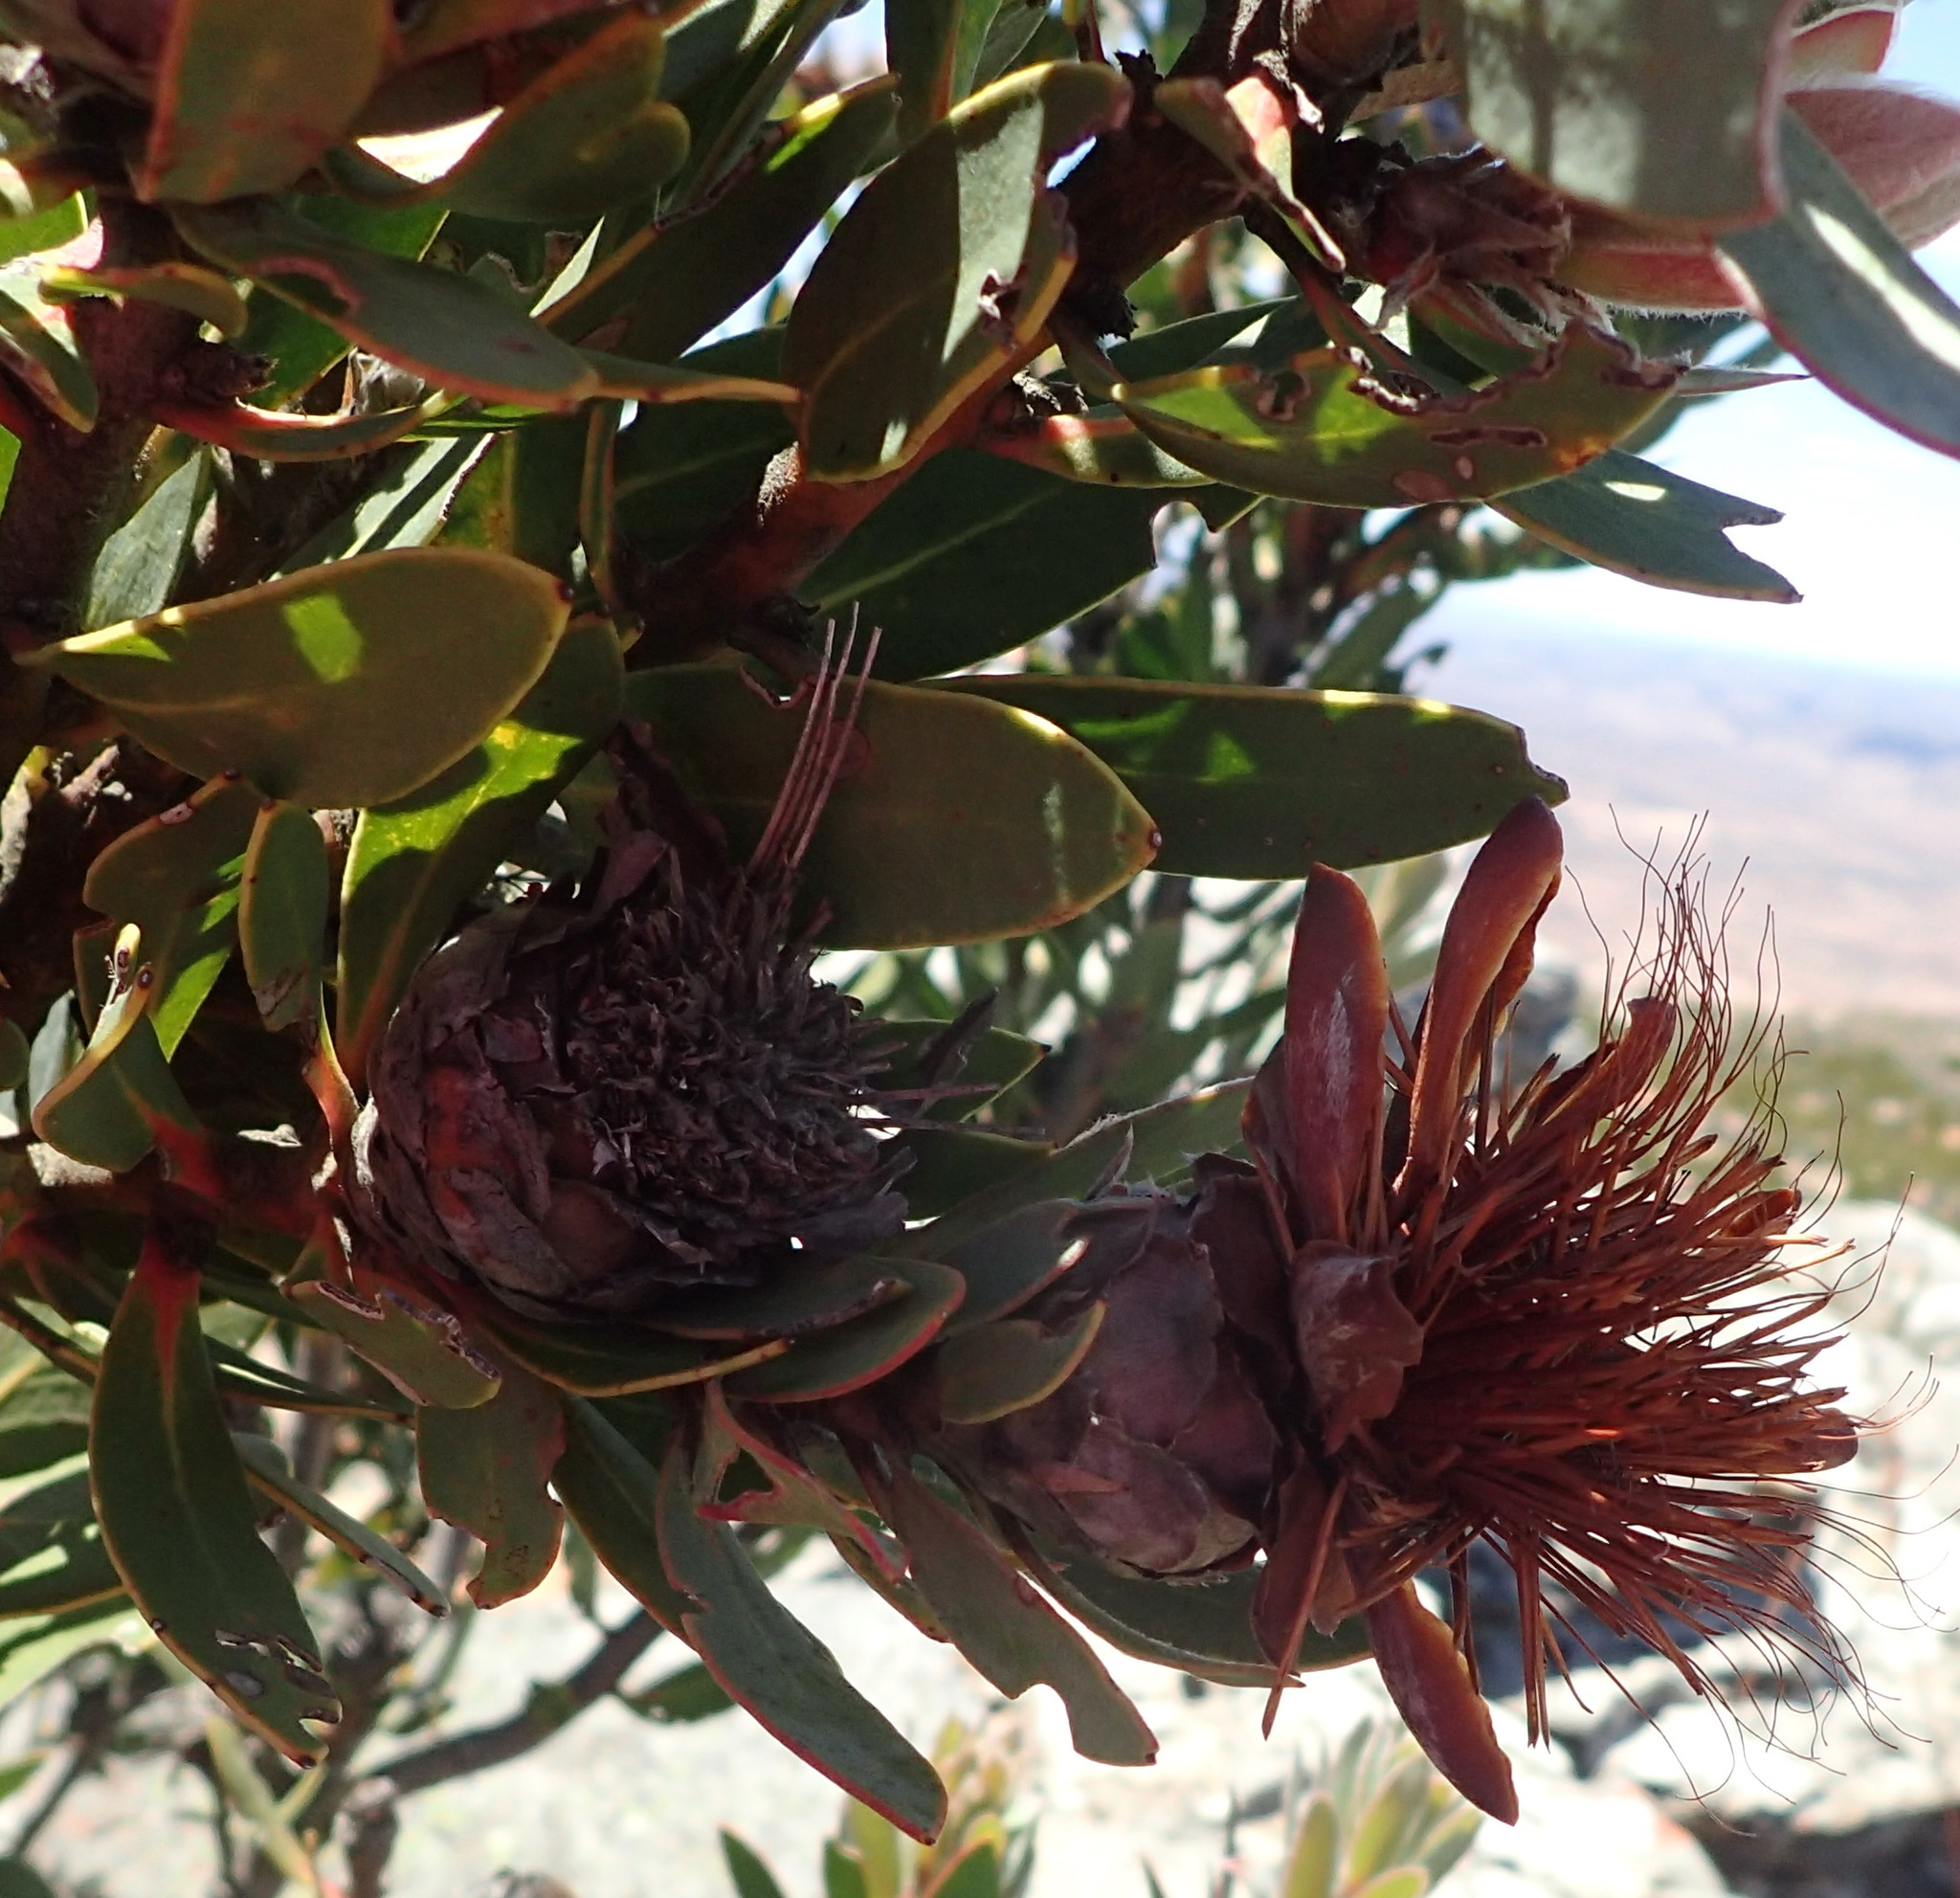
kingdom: Plantae
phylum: Tracheophyta
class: Magnoliopsida
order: Proteales
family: Proteaceae
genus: Protea
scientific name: Protea punctata
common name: Water sugarbush
